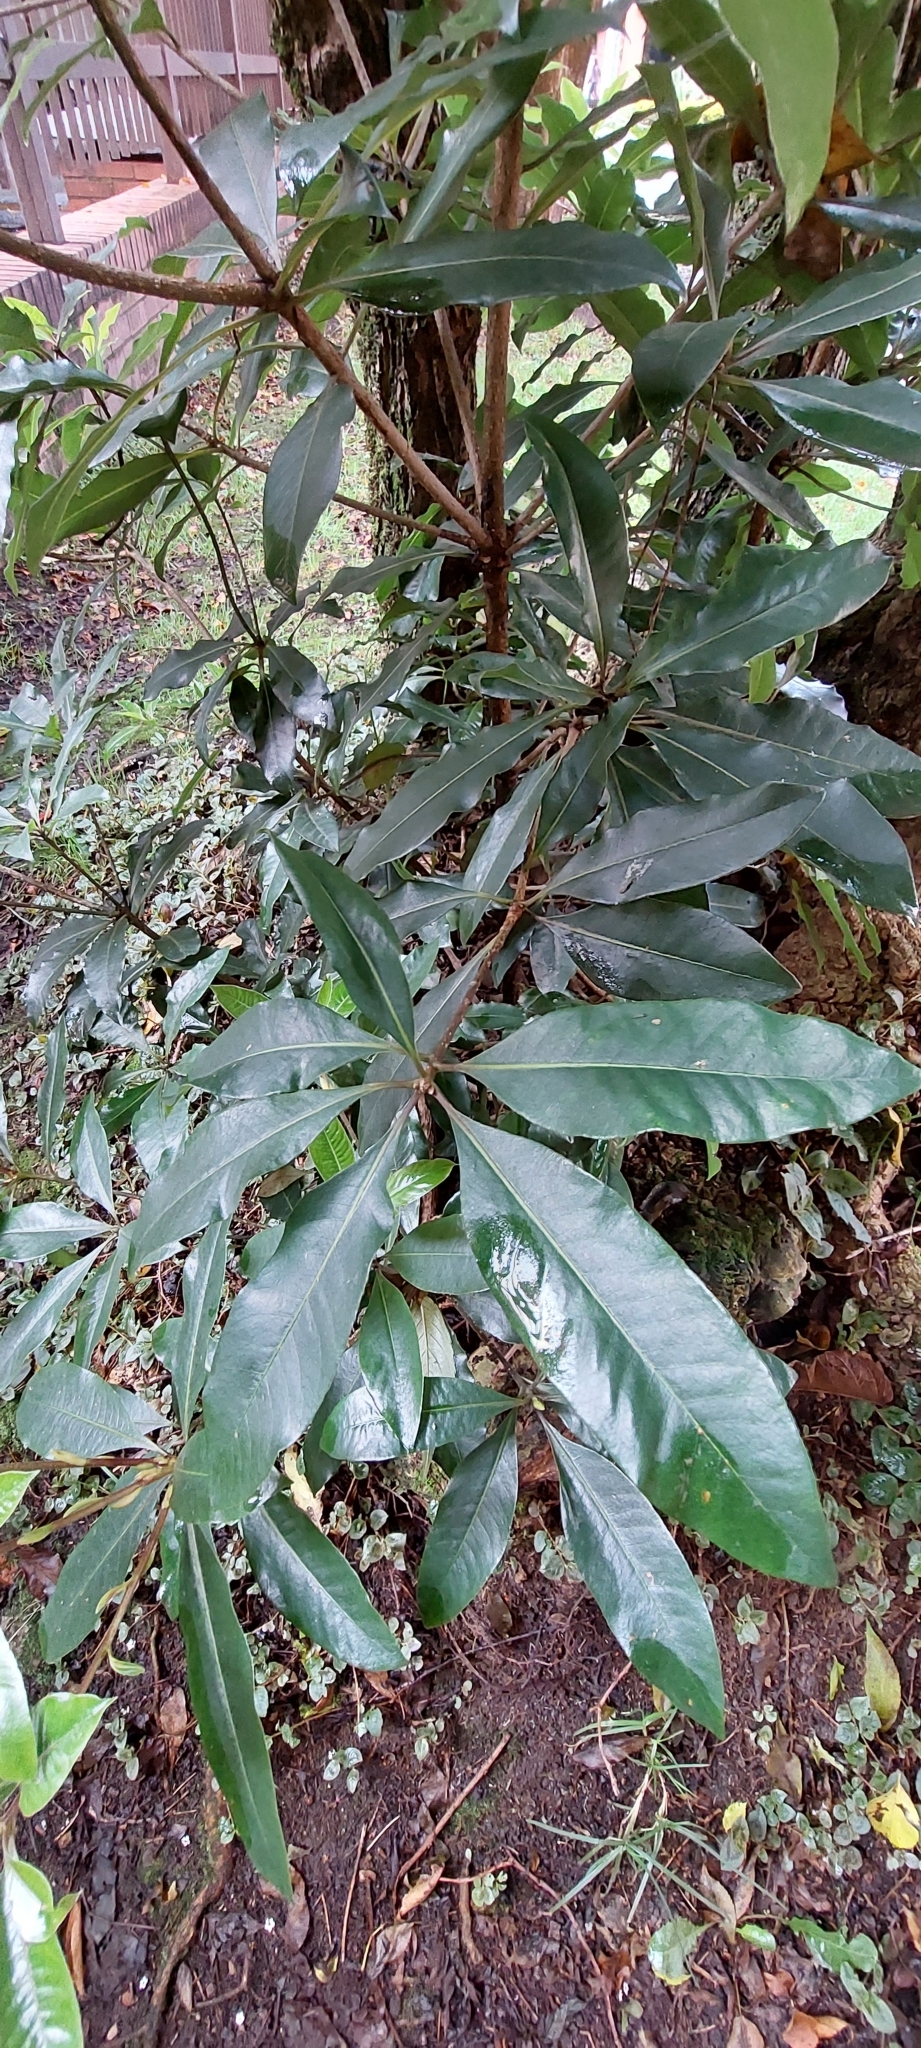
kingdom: Plantae
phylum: Tracheophyta
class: Magnoliopsida
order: Apiales
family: Pittosporaceae
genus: Pittosporum
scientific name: Pittosporum undulatum
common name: Australian cheesewood
